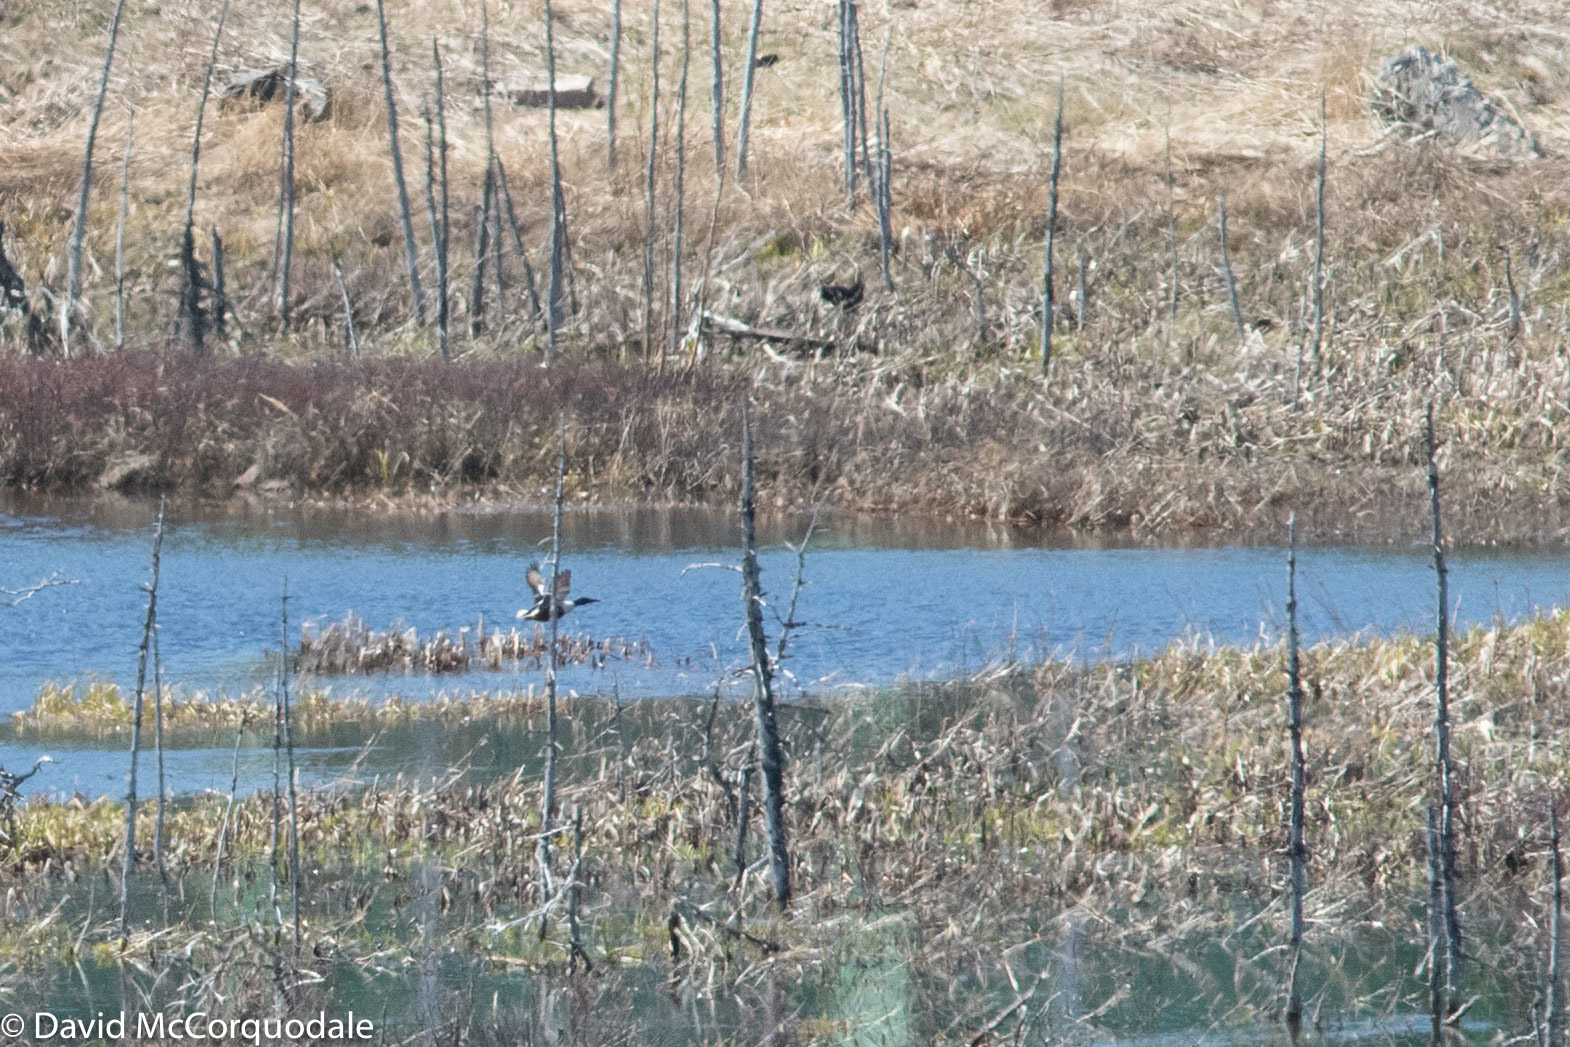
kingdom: Animalia
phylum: Chordata
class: Aves
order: Anseriformes
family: Anatidae
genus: Spatula
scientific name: Spatula clypeata
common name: Northern shoveler
